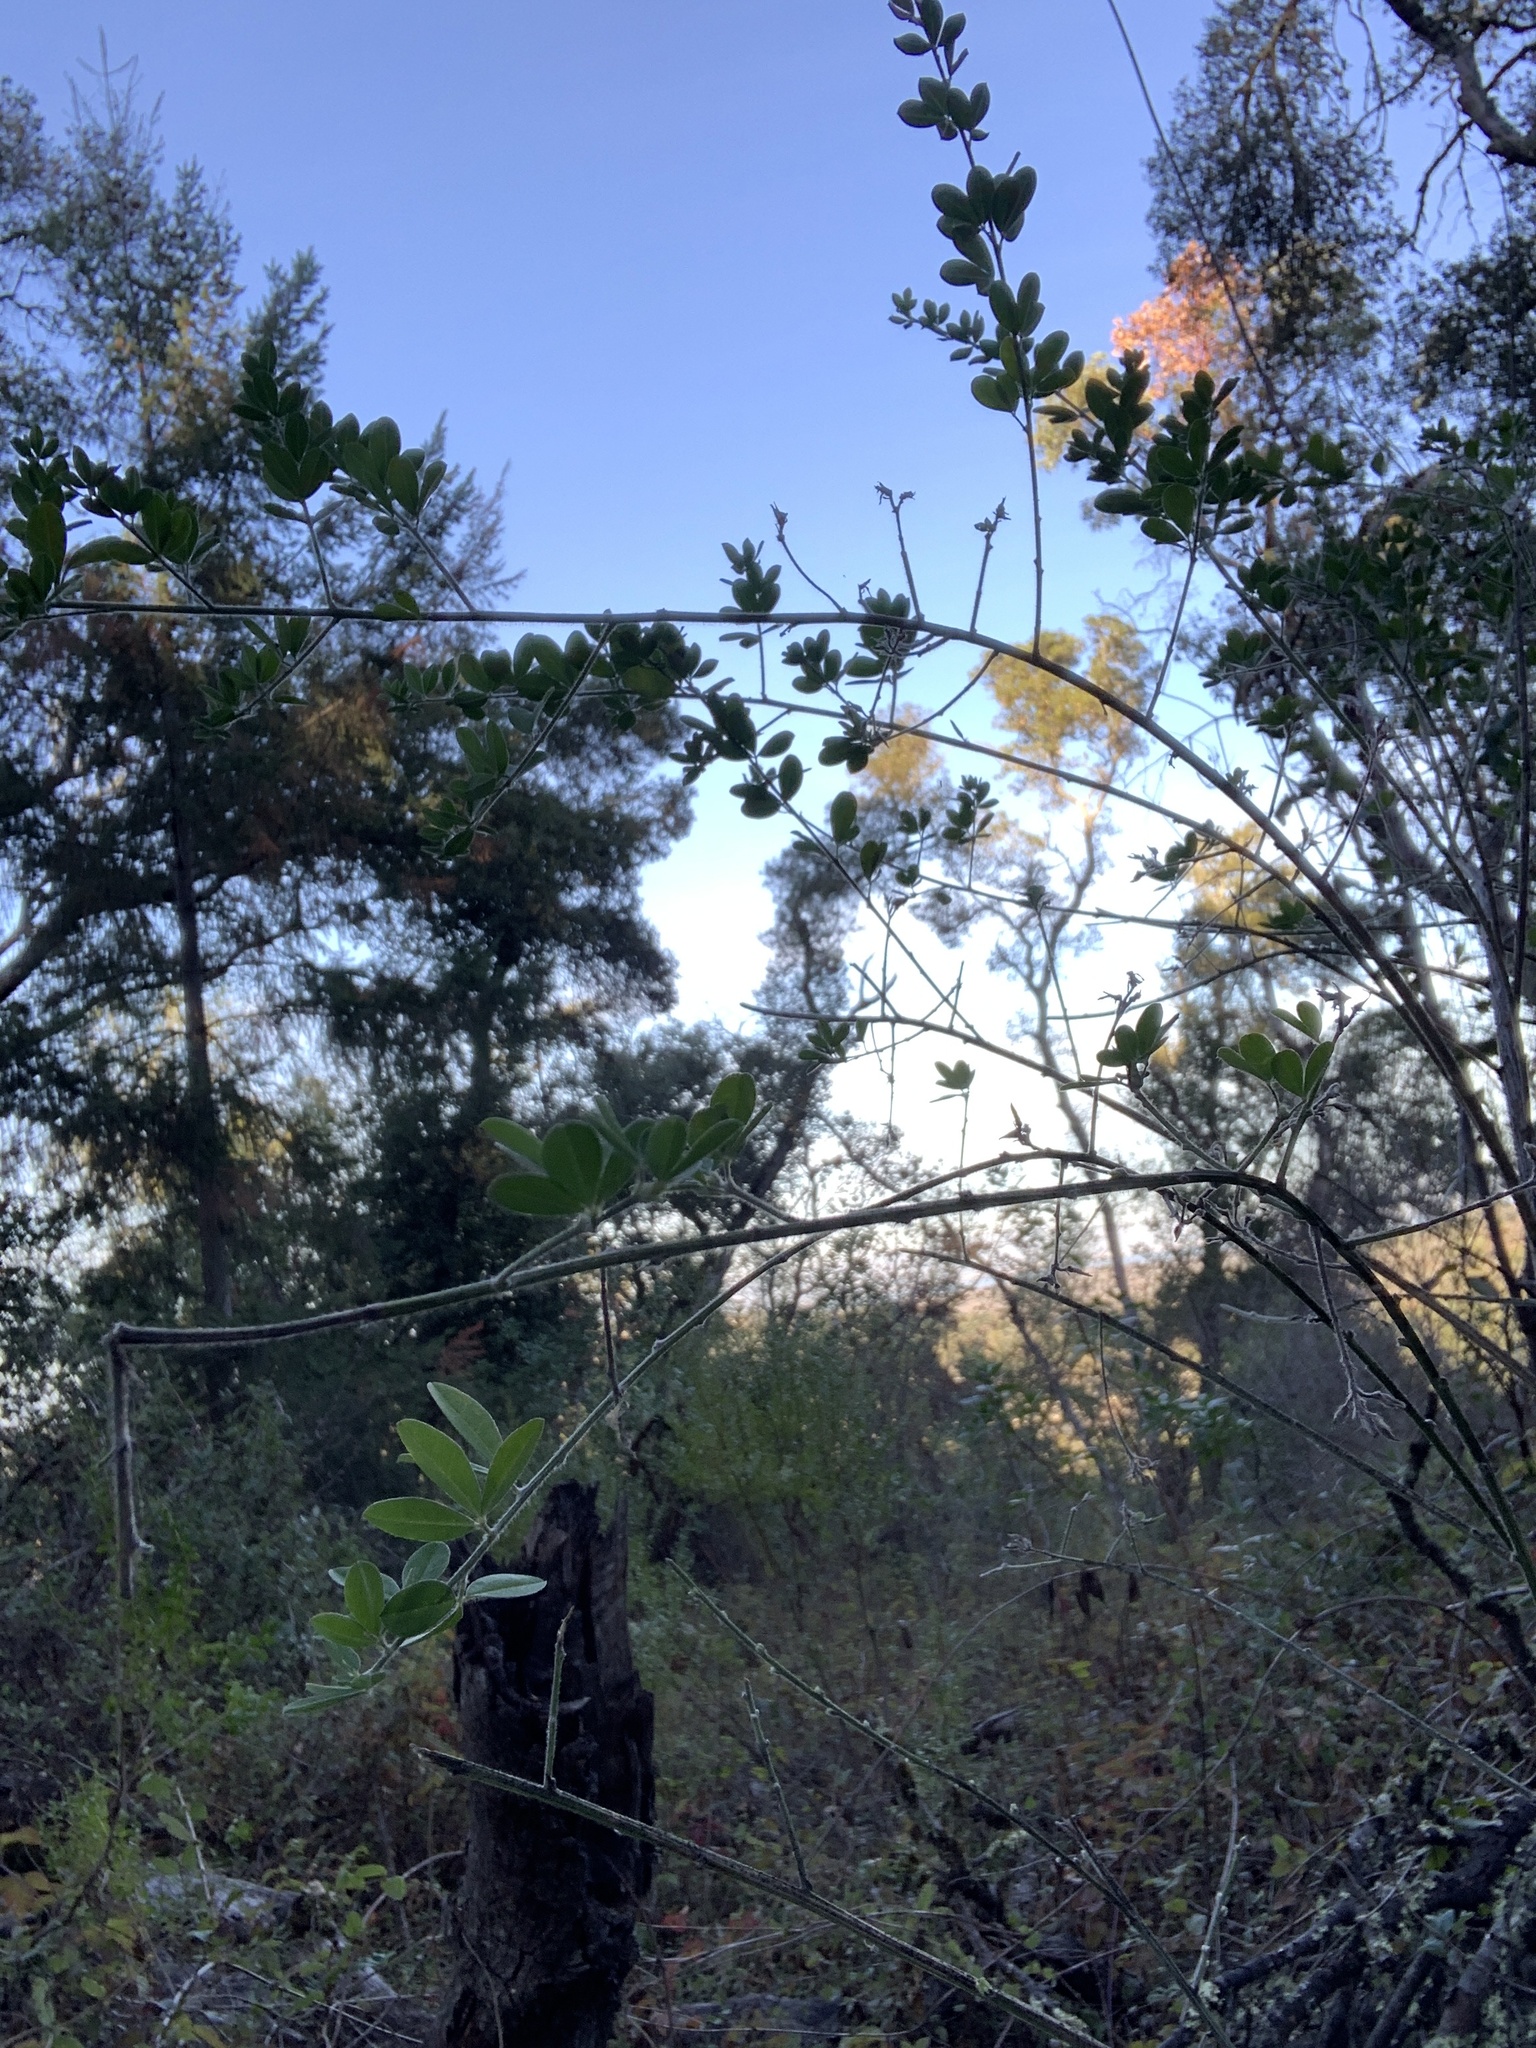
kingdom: Plantae
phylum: Tracheophyta
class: Magnoliopsida
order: Fabales
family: Fabaceae
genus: Genista
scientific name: Genista monspessulana
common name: Montpellier broom
